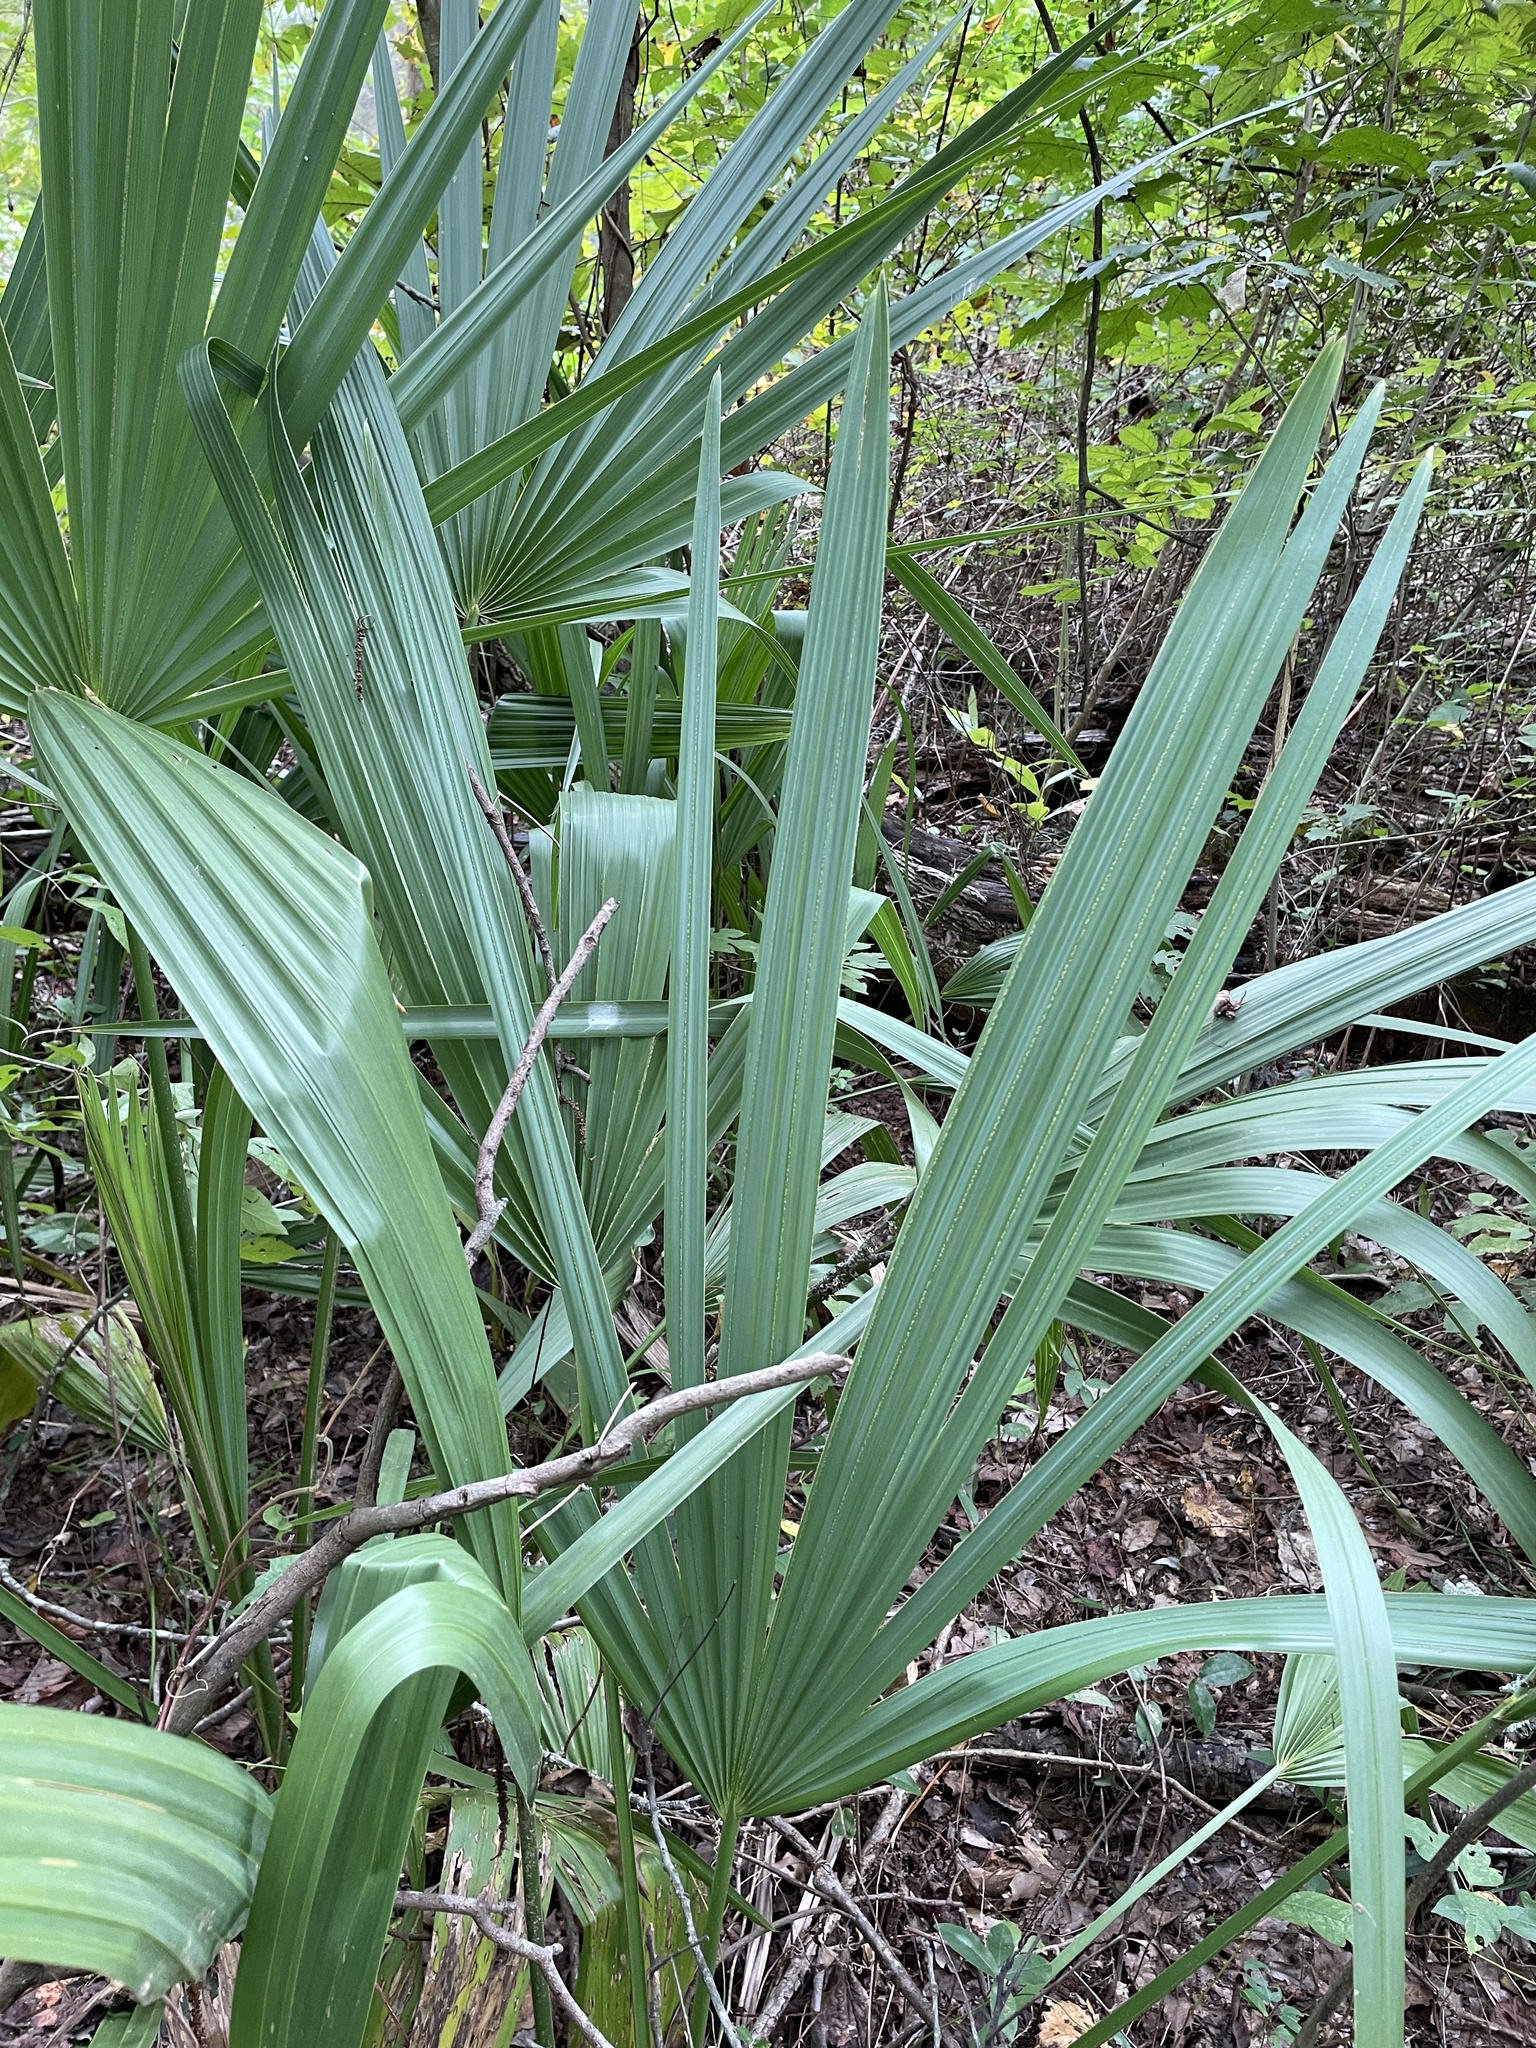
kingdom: Plantae
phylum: Tracheophyta
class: Liliopsida
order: Arecales
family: Arecaceae
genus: Sabal
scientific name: Sabal minor
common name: Dwarf palmetto
